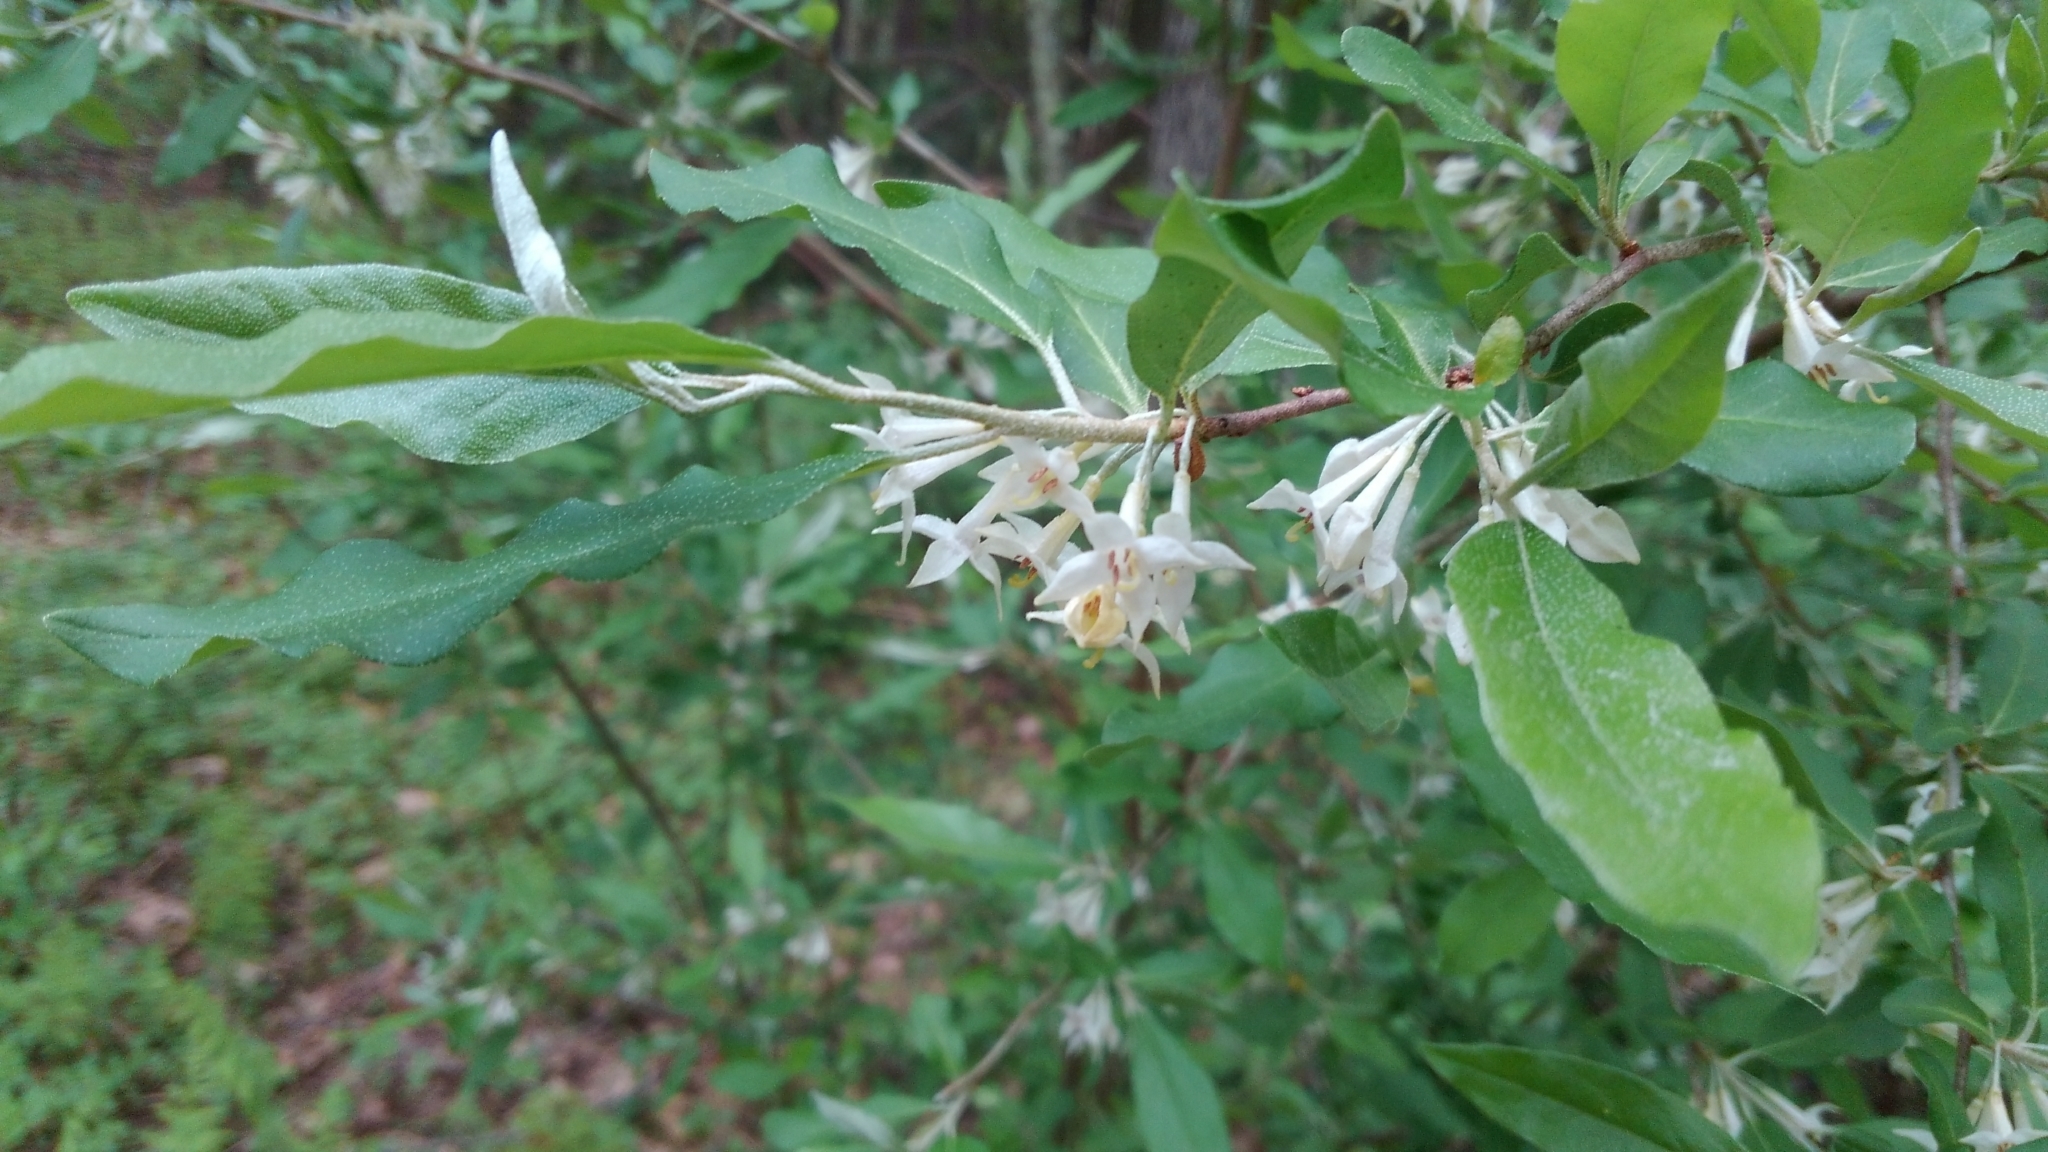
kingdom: Plantae
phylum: Tracheophyta
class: Magnoliopsida
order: Rosales
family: Elaeagnaceae
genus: Elaeagnus
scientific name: Elaeagnus umbellata
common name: Autumn olive
